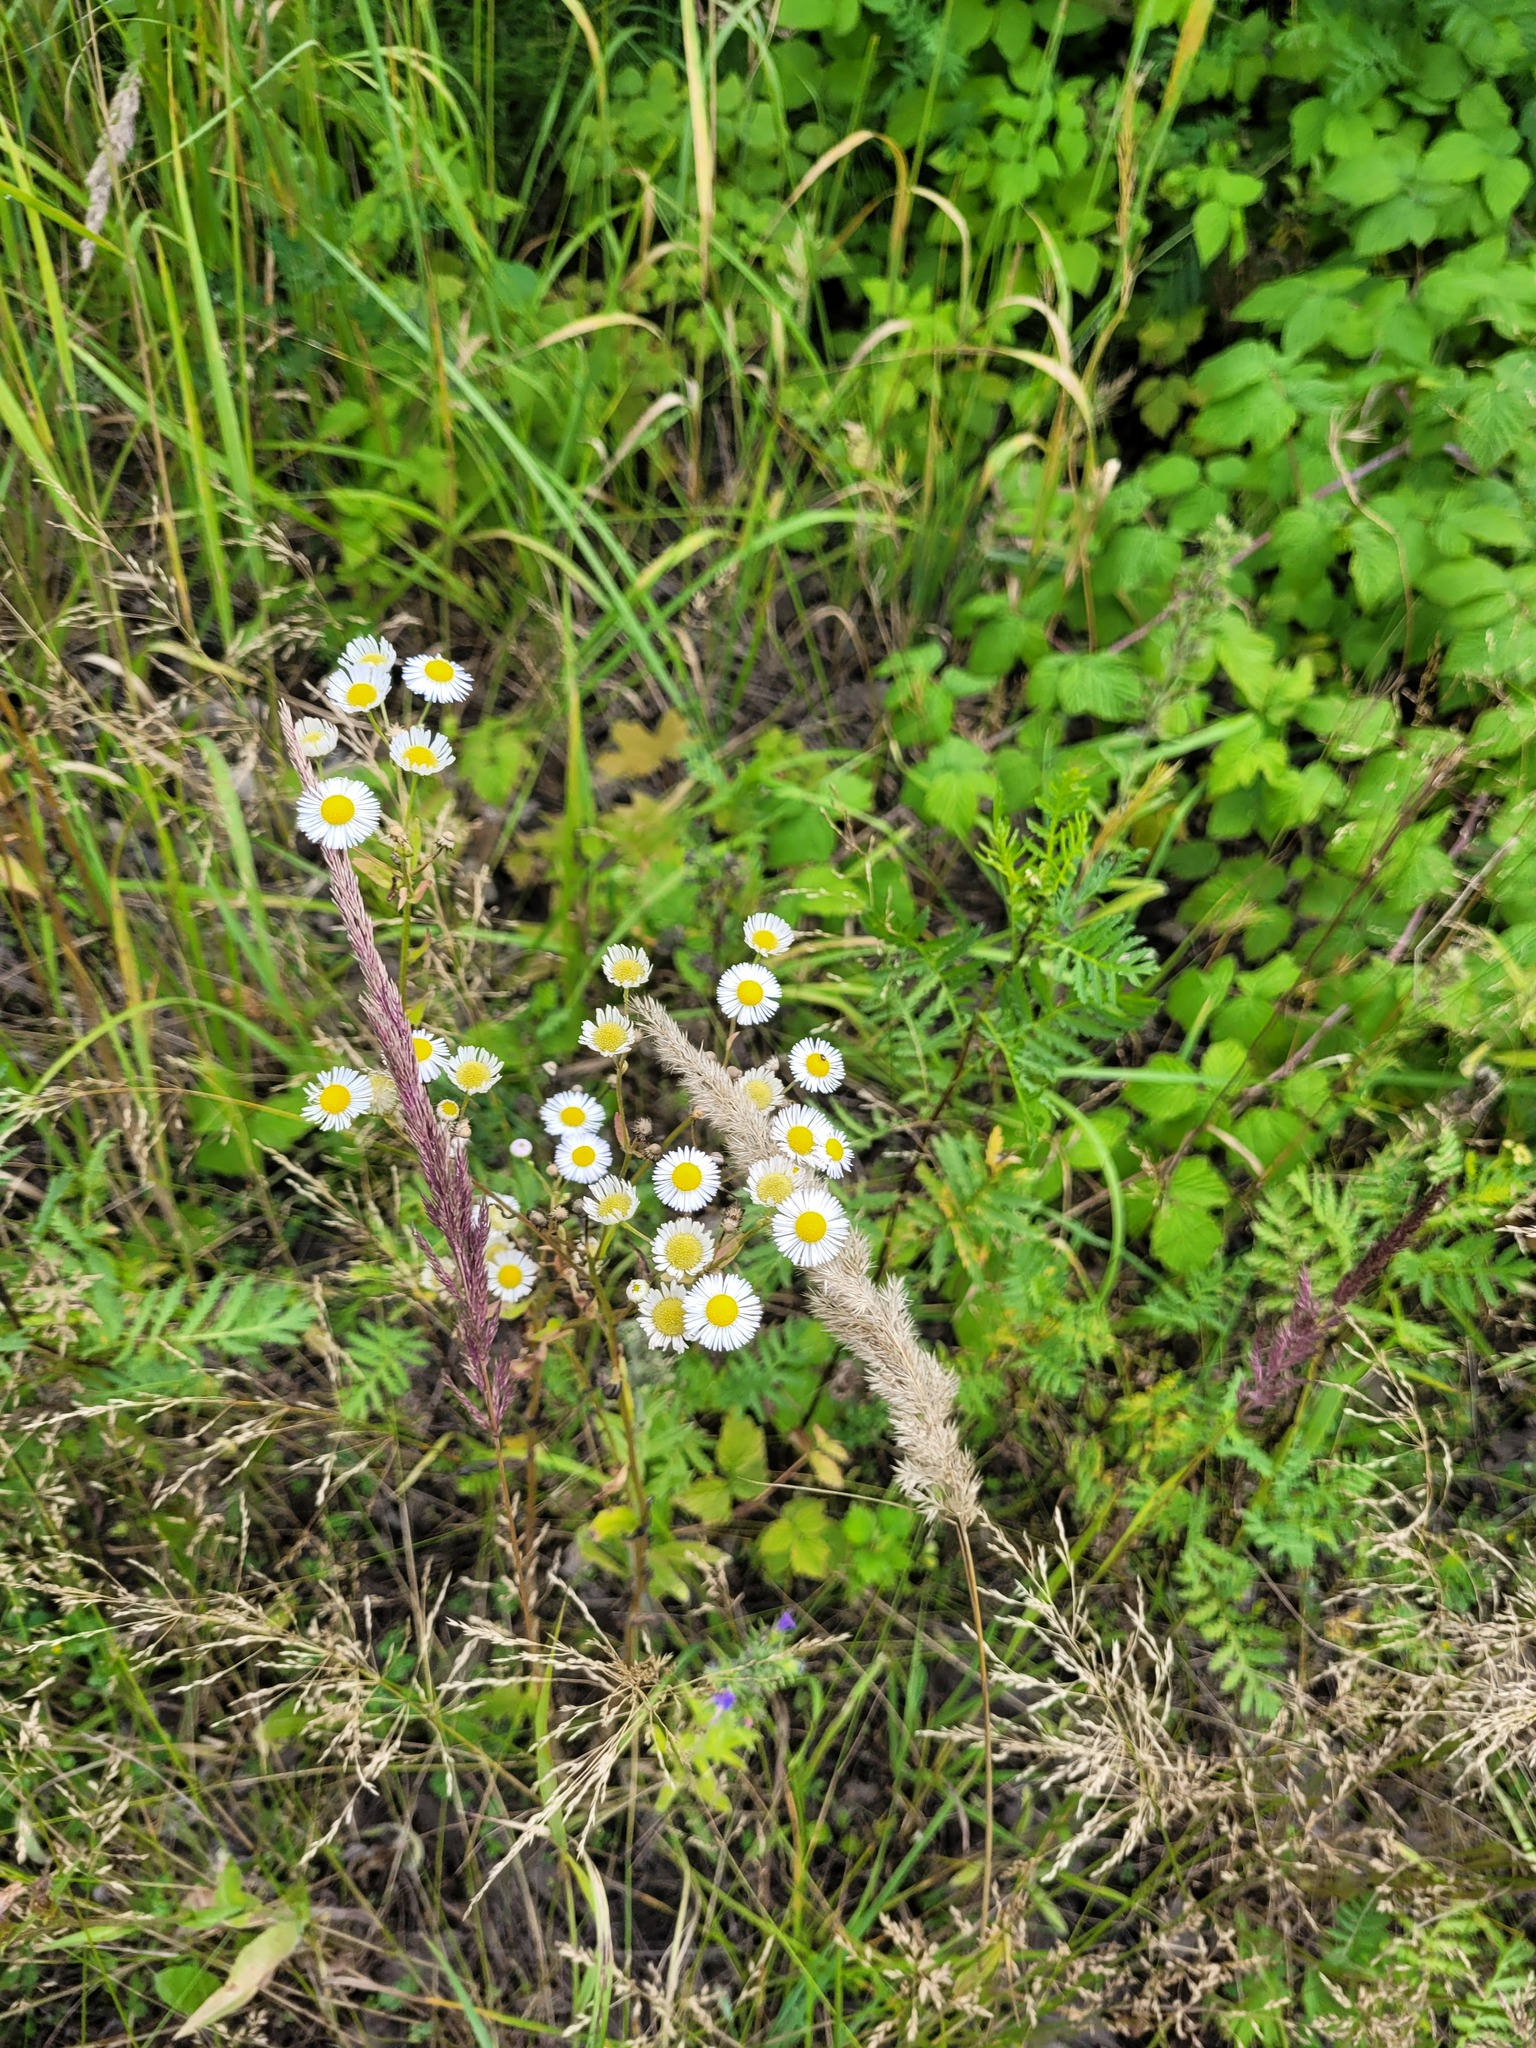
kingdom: Plantae
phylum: Tracheophyta
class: Magnoliopsida
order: Asterales
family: Asteraceae
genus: Erigeron
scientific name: Erigeron annuus
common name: Tall fleabane
